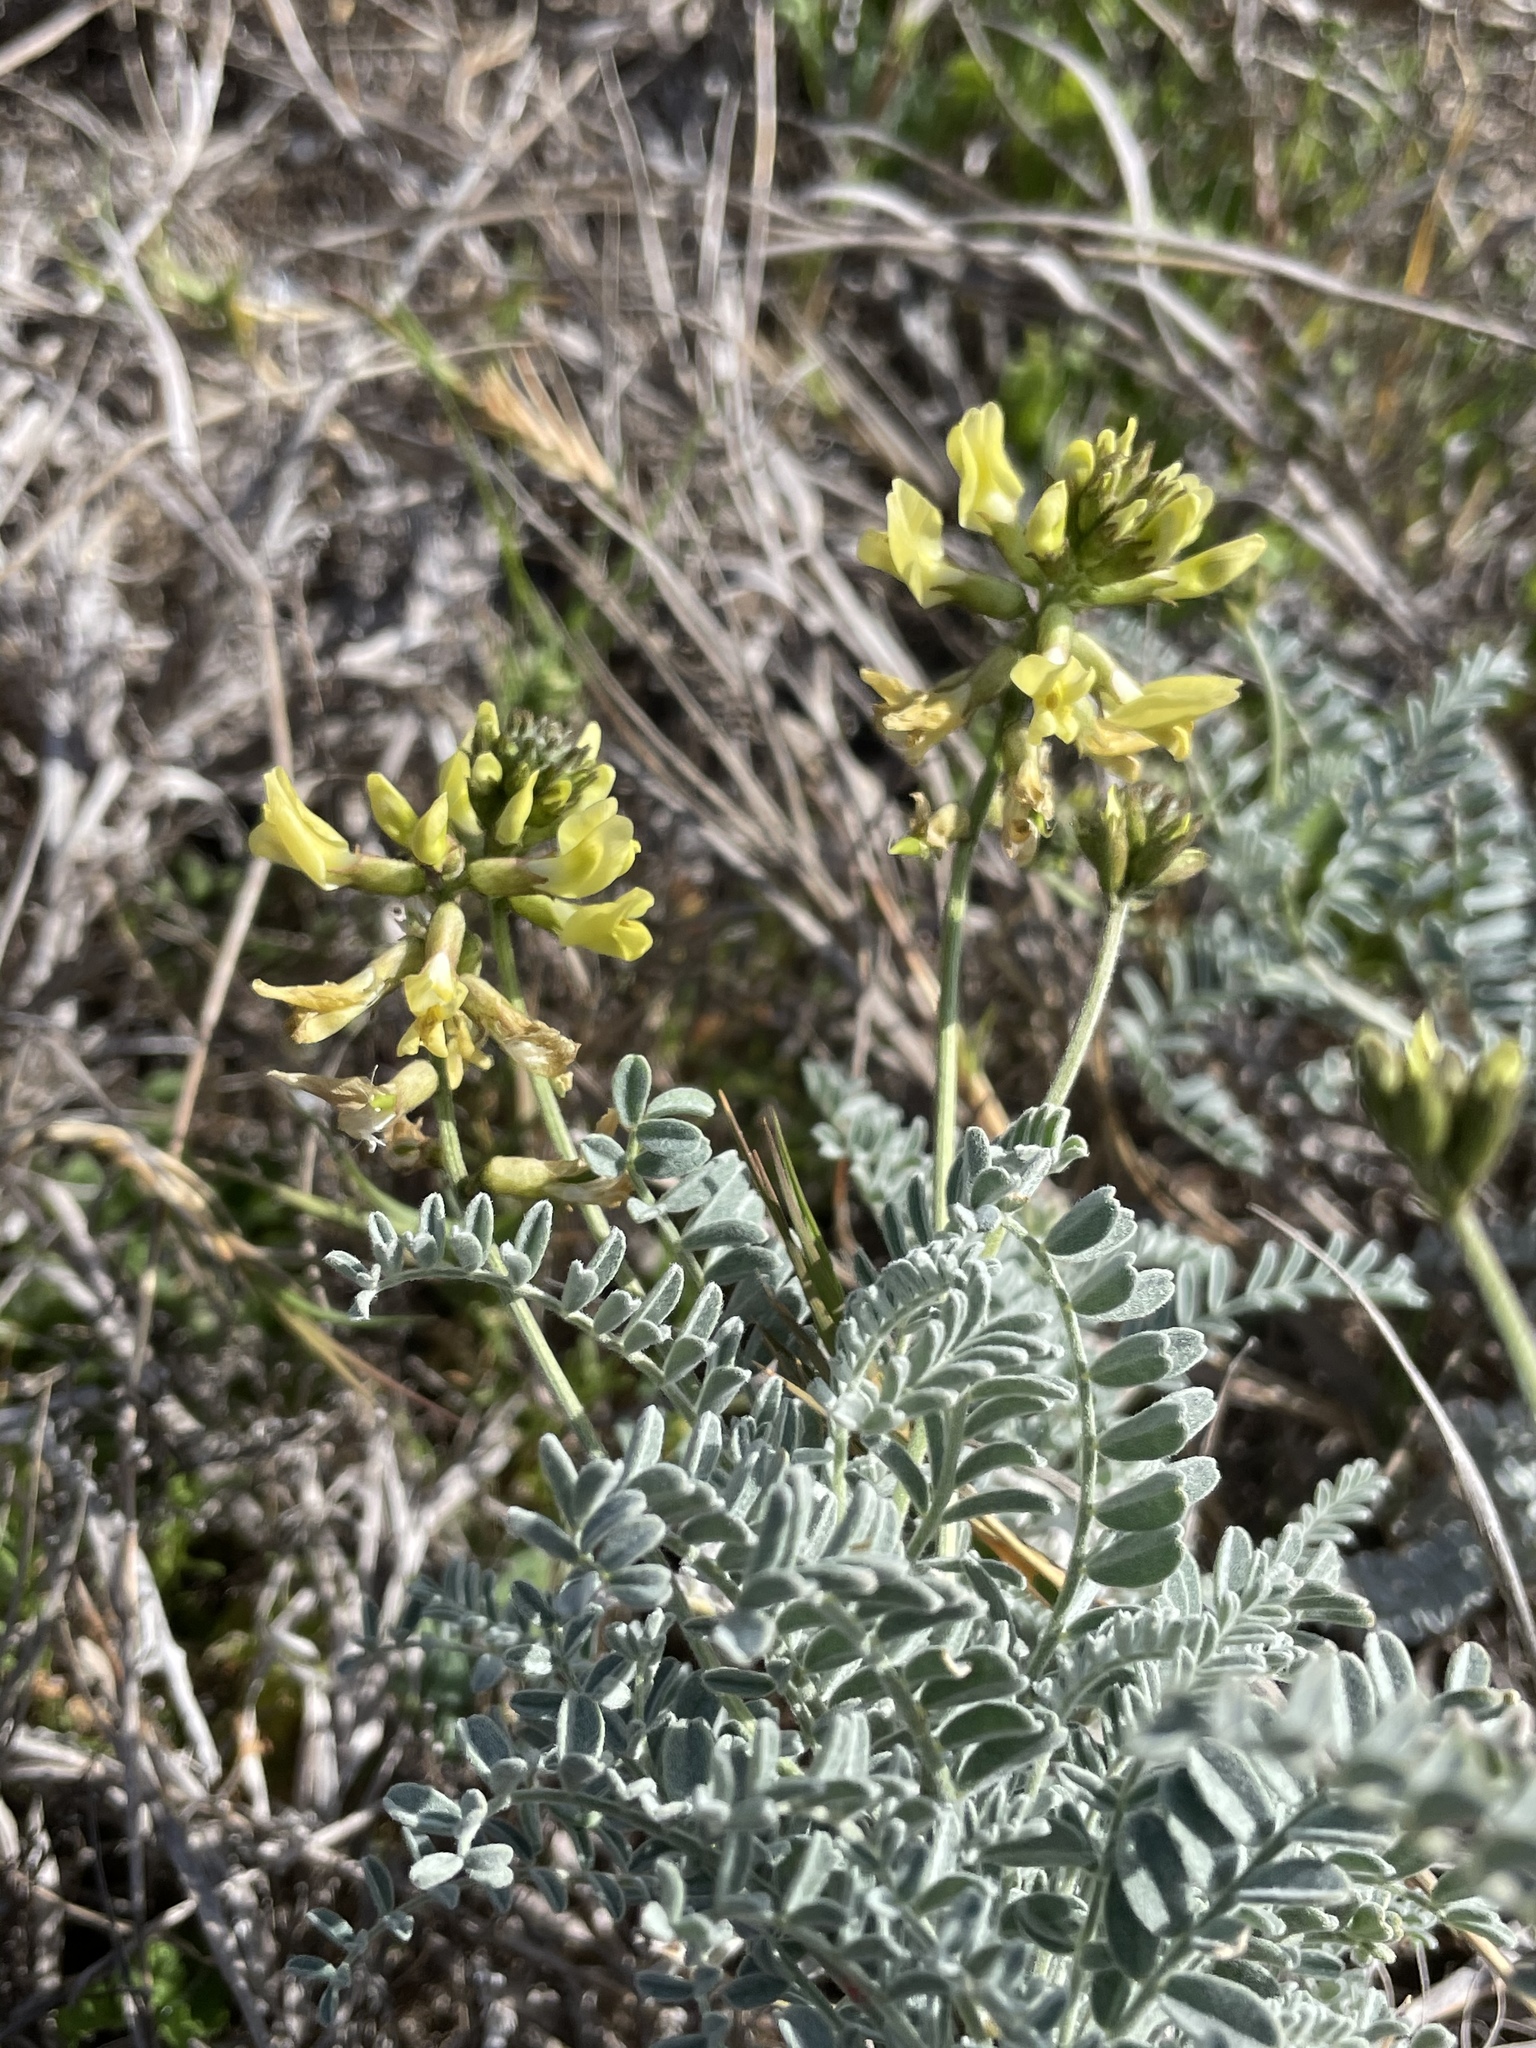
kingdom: Plantae
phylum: Tracheophyta
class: Magnoliopsida
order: Fabales
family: Fabaceae
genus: Astragalus
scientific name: Astragalus nevinii
